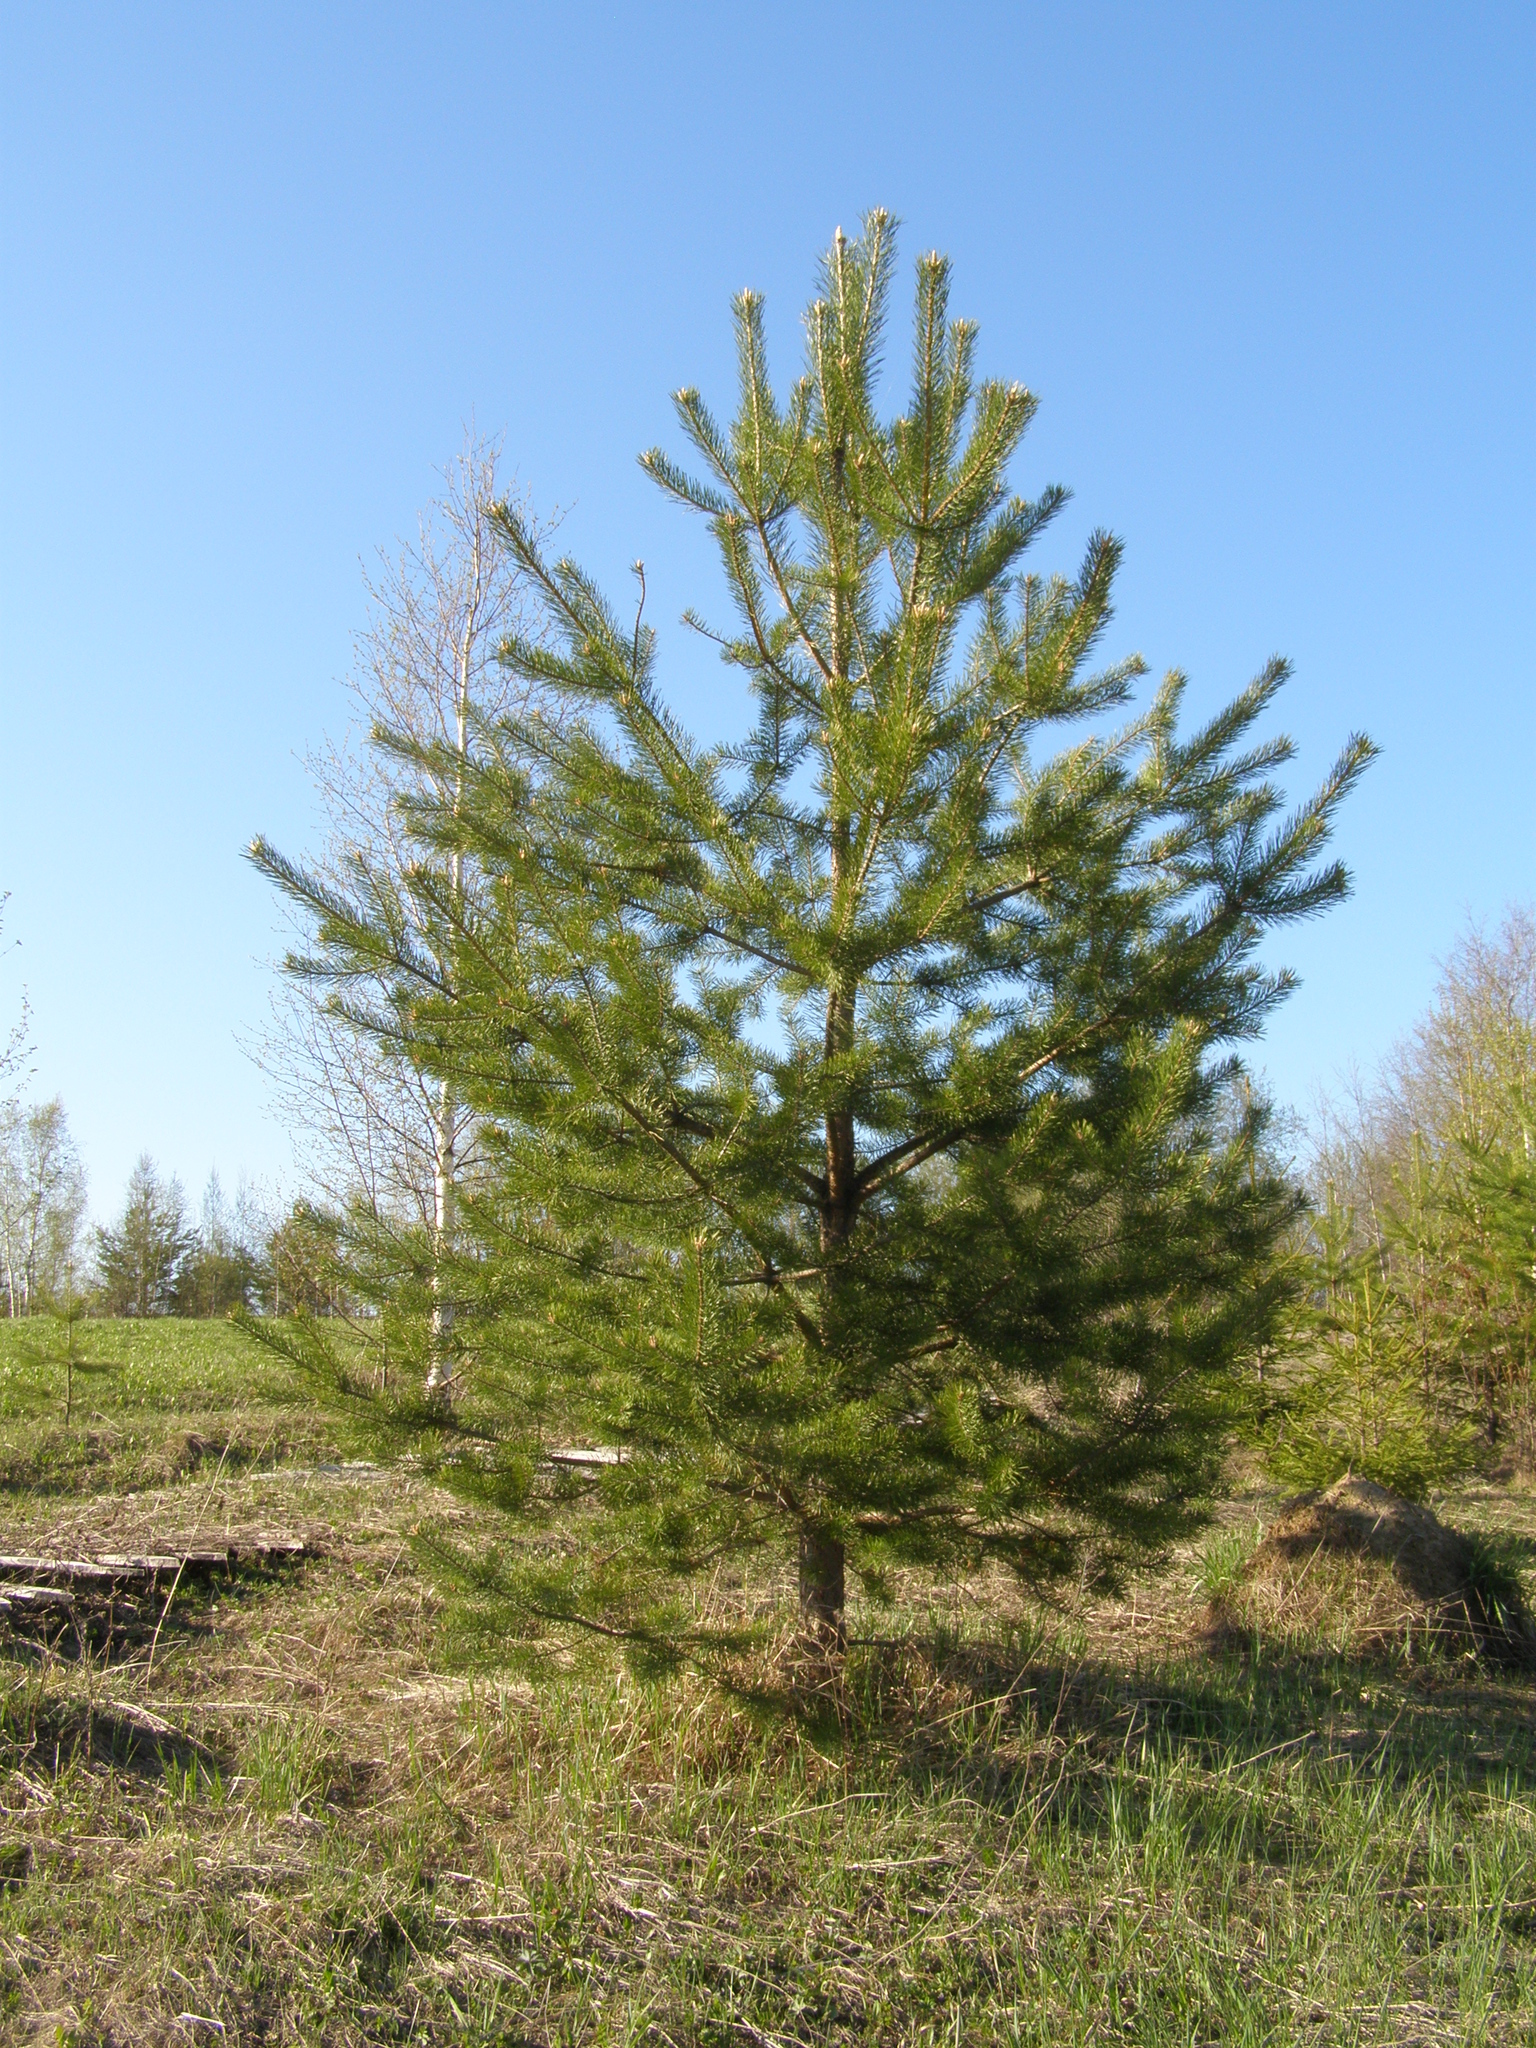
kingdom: Plantae
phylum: Tracheophyta
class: Pinopsida
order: Pinales
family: Pinaceae
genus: Pinus
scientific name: Pinus sylvestris
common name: Scots pine
